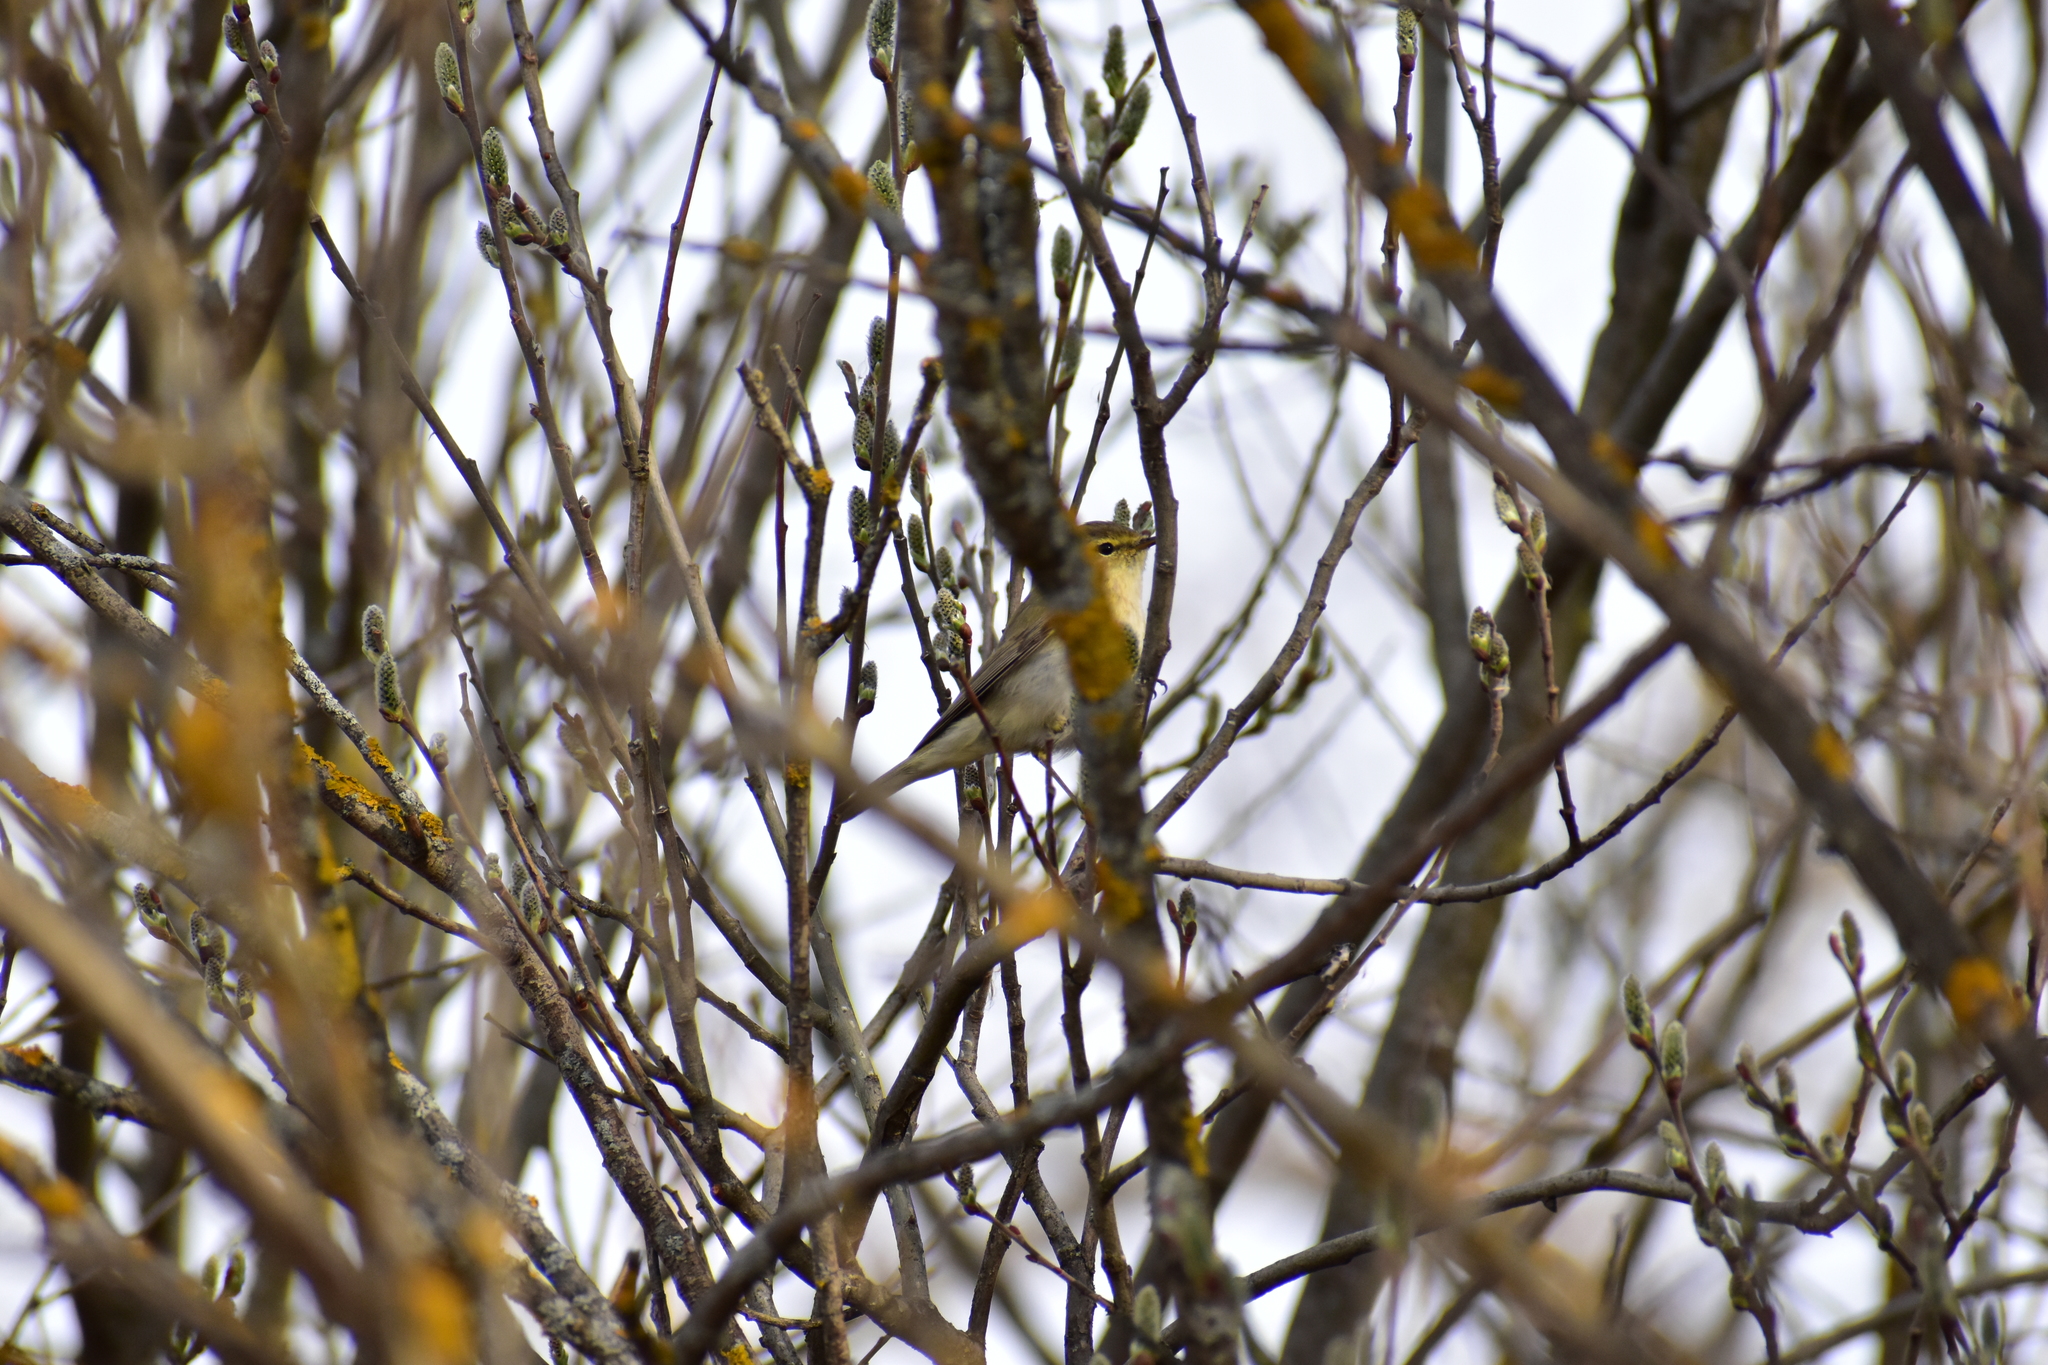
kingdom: Animalia
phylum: Chordata
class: Aves
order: Passeriformes
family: Phylloscopidae
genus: Phylloscopus
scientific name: Phylloscopus collybita
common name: Common chiffchaff
